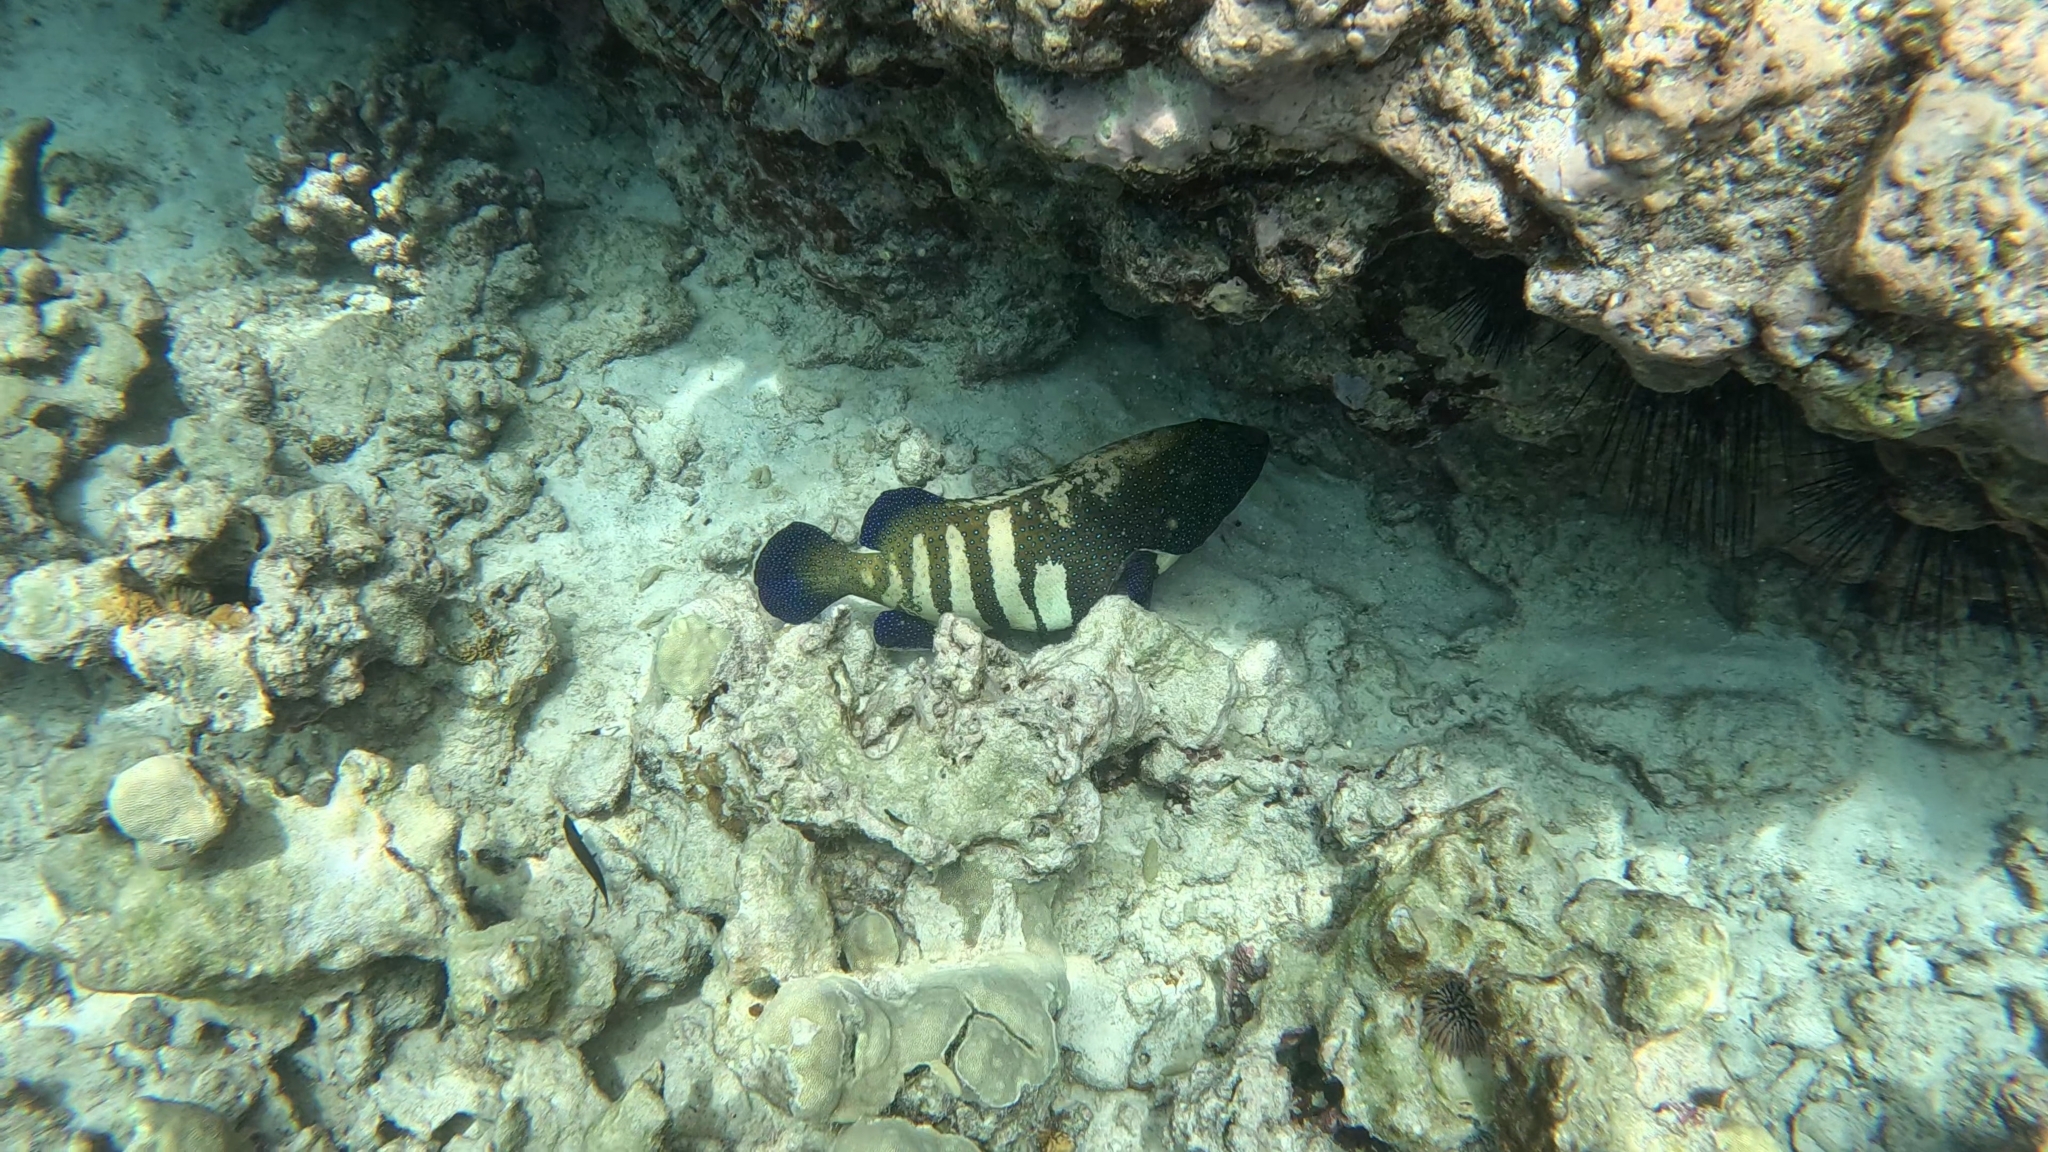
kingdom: Animalia
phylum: Chordata
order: Perciformes
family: Serranidae
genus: Cephalopholis
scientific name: Cephalopholis argus
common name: Peacock grouper
